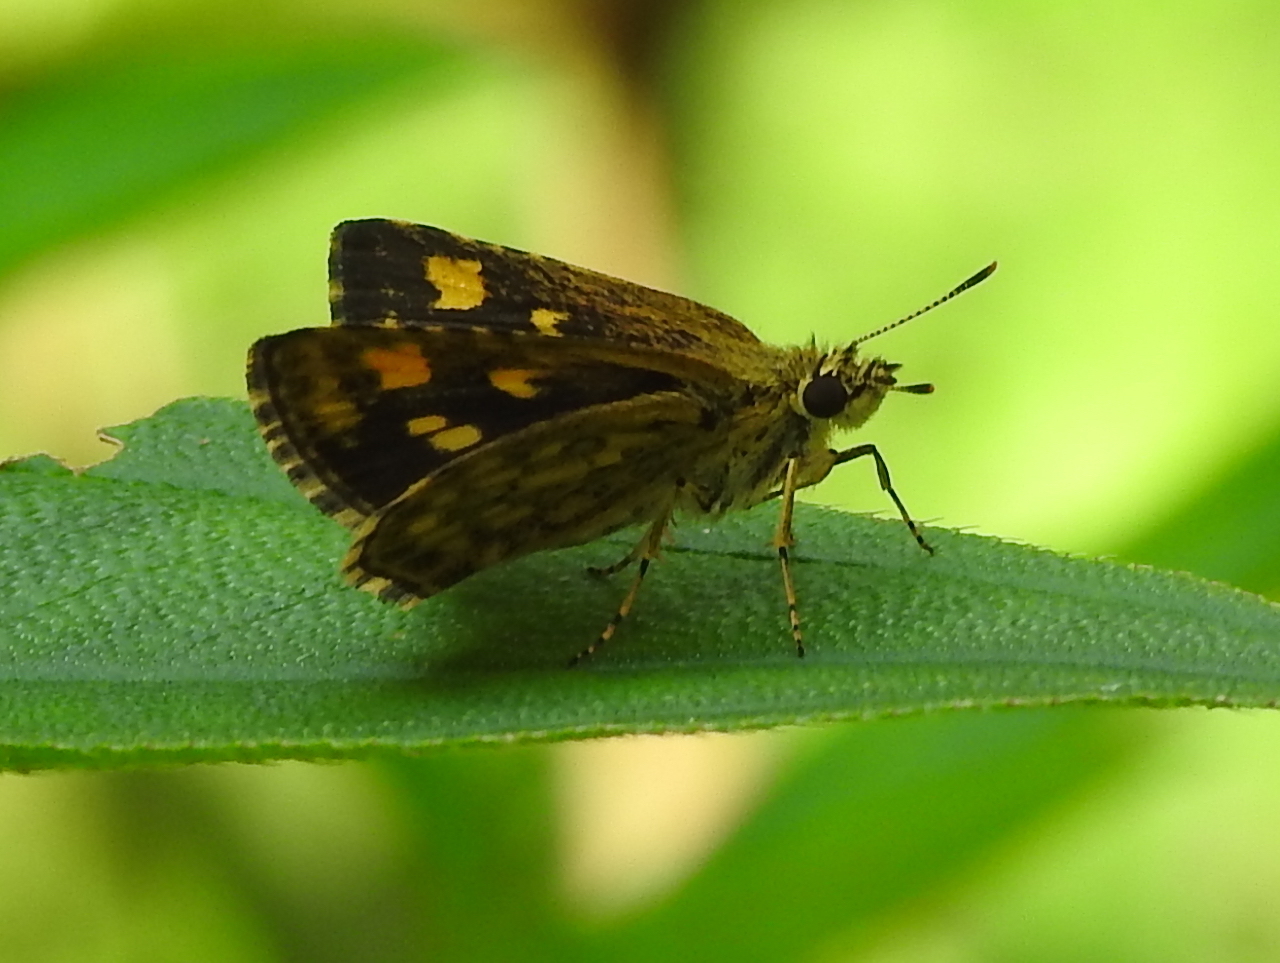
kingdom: Animalia
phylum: Arthropoda
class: Insecta
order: Lepidoptera
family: Hesperiidae
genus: Ampittia
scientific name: Ampittia dioscorides
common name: Common bush hopper
